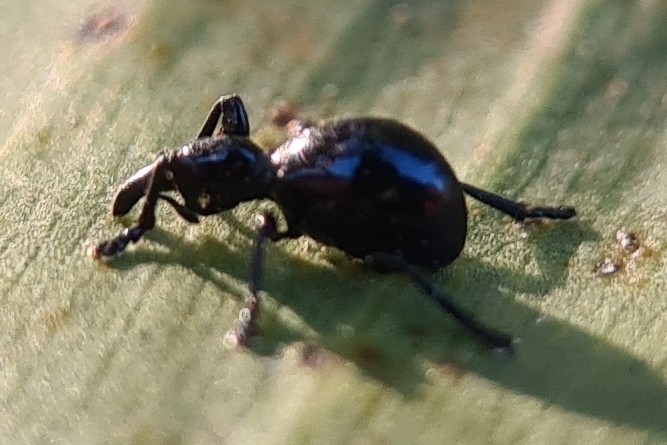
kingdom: Animalia
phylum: Arthropoda
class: Insecta
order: Coleoptera
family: Brentidae
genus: Rhynolaccus
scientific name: Rhynolaccus formicarius
